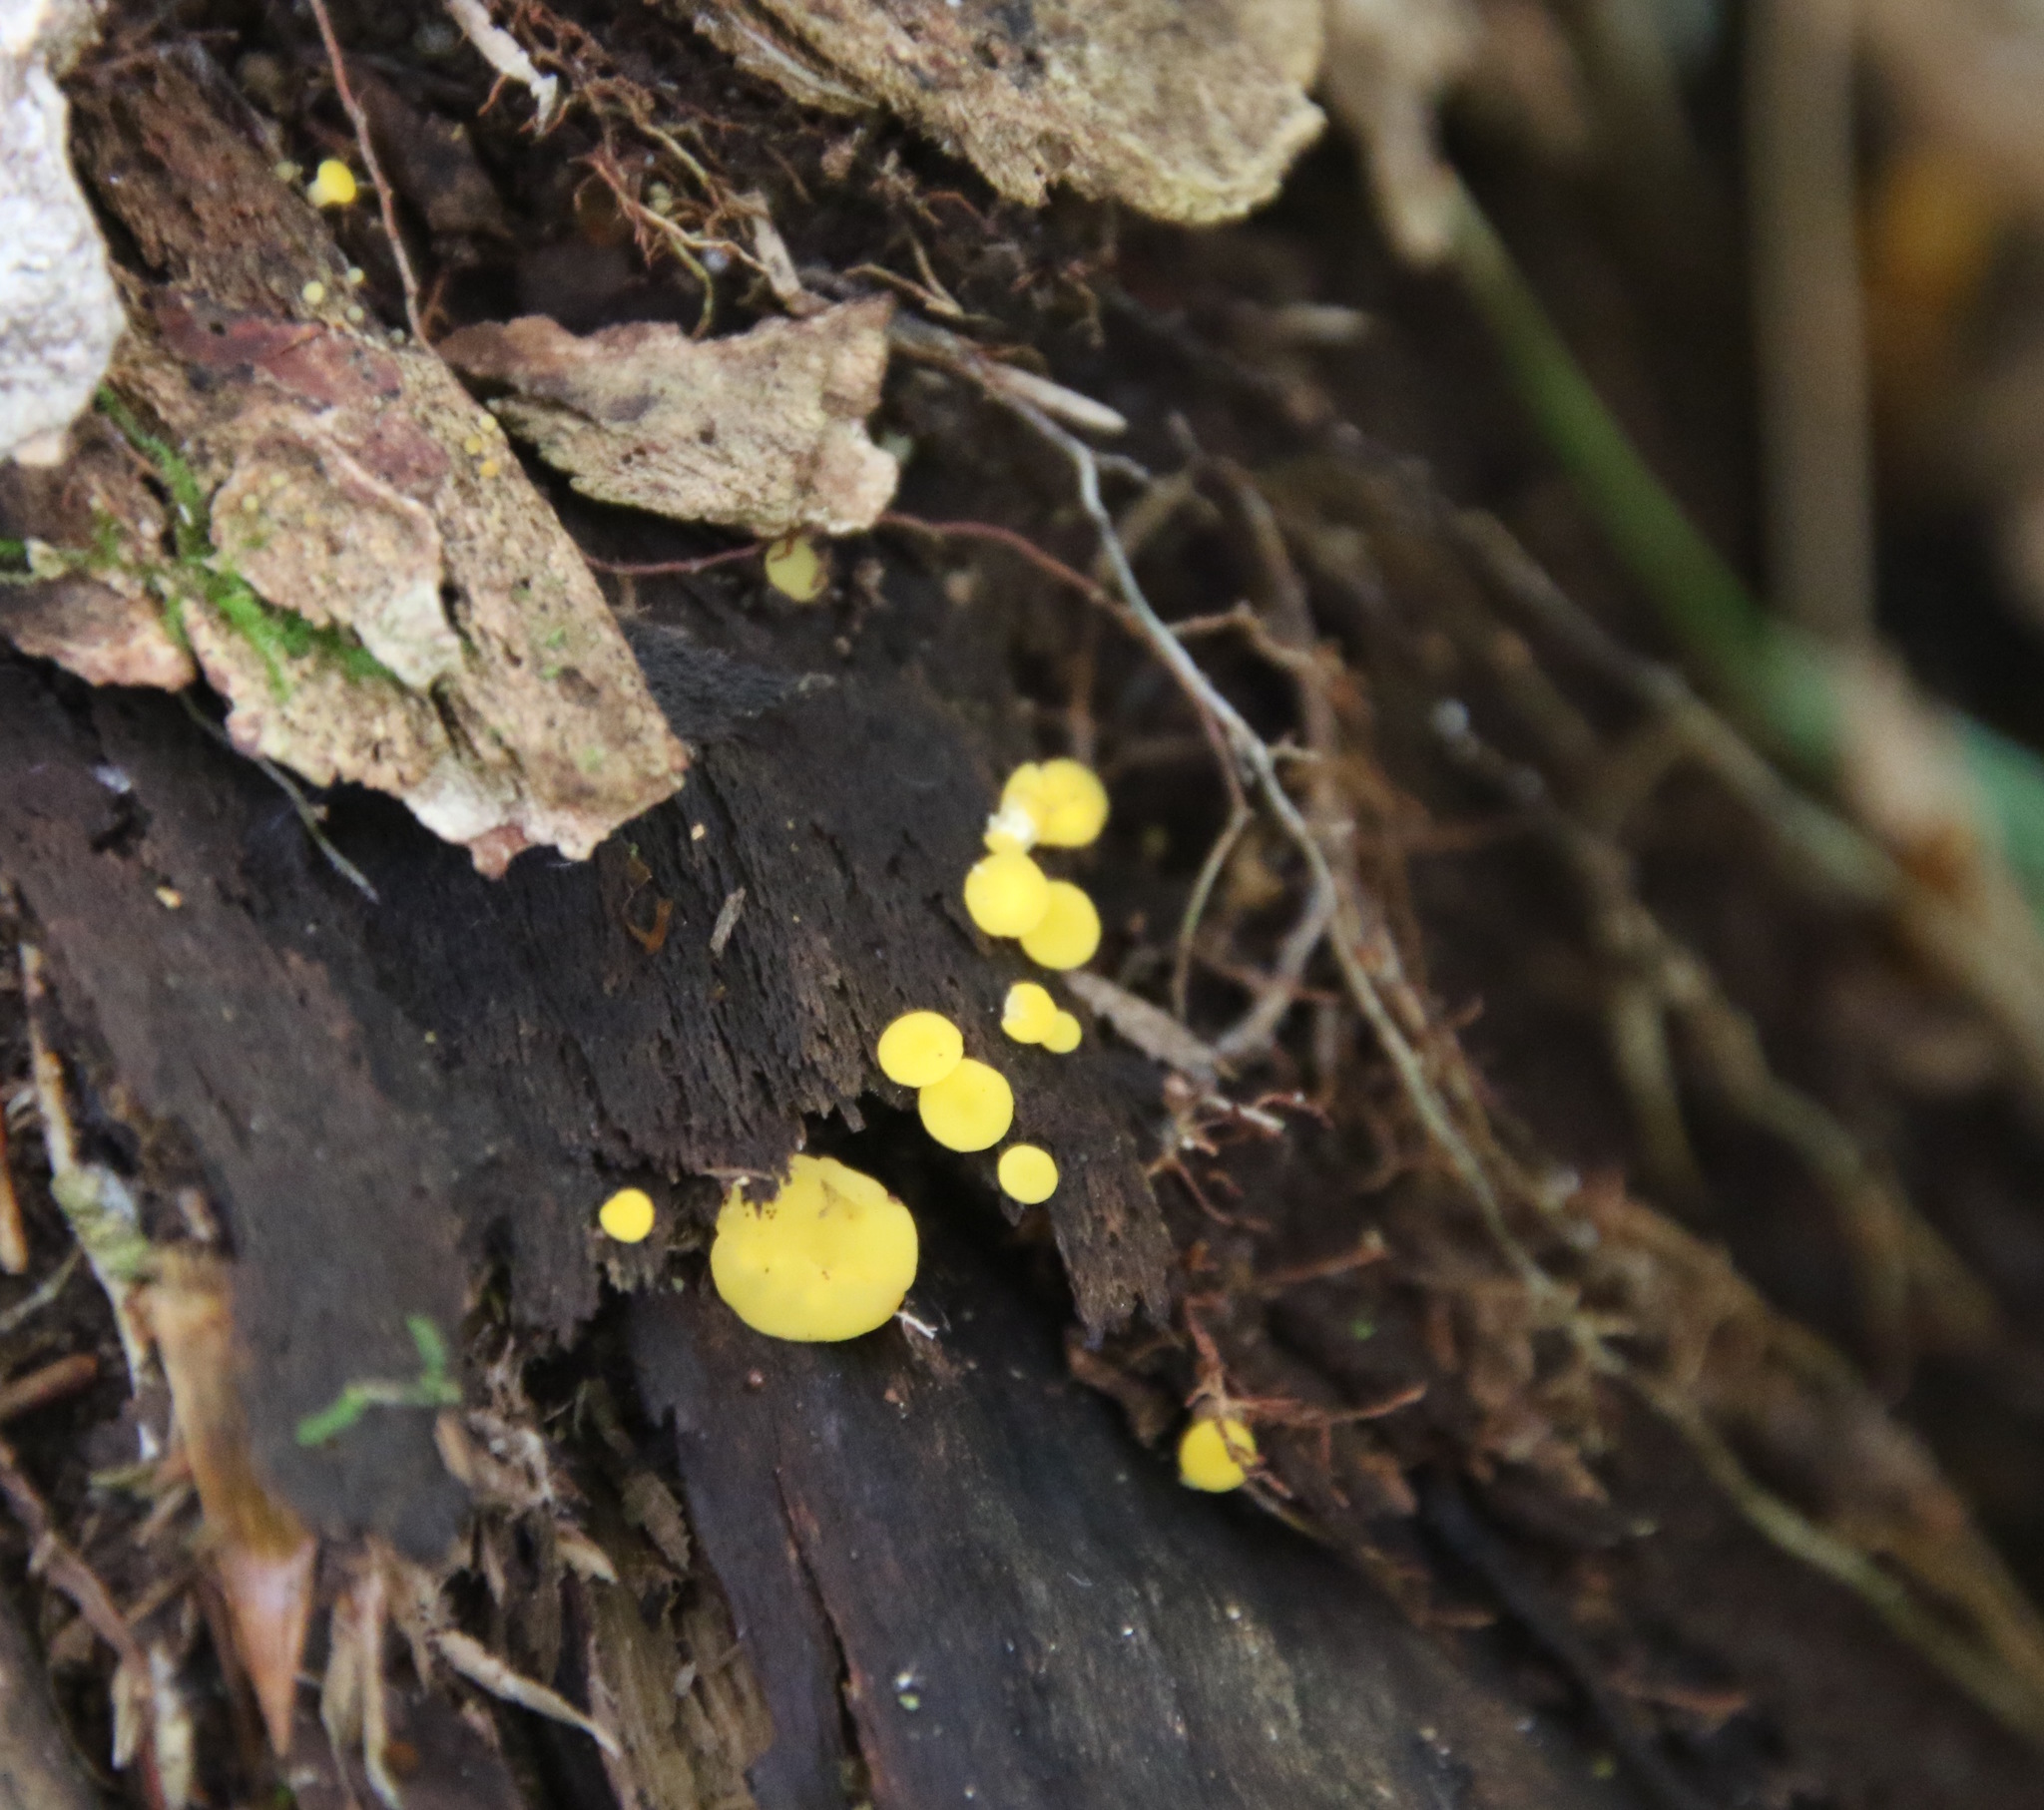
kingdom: Fungi
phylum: Ascomycota
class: Leotiomycetes
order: Helotiales
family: Pezizellaceae
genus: Calycina
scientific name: Calycina citrina
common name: Yellow fairy cups
